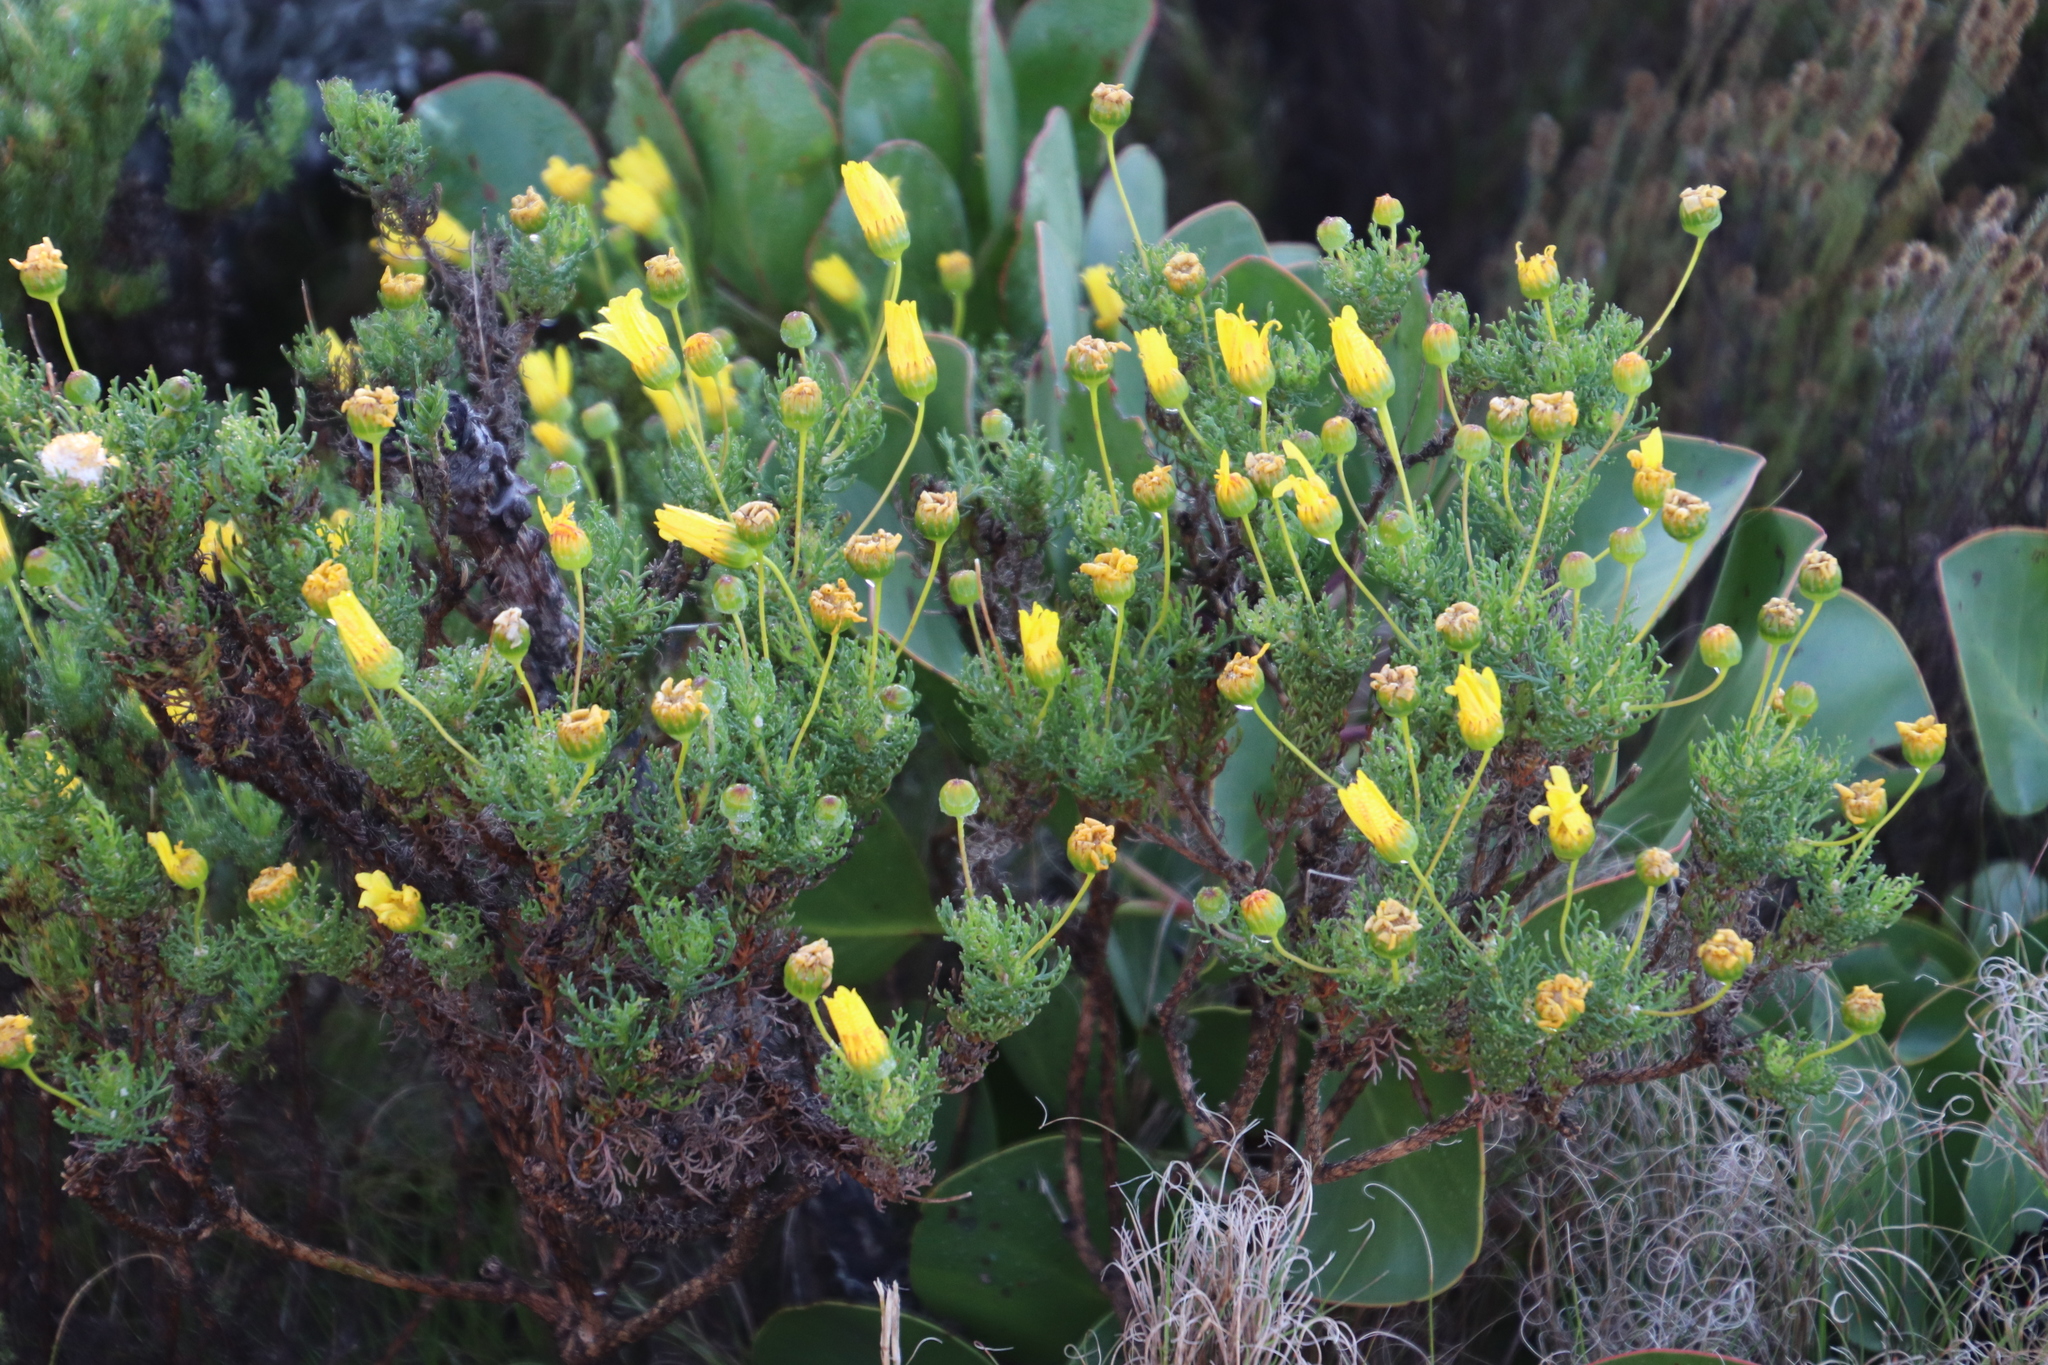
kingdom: Plantae
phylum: Tracheophyta
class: Magnoliopsida
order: Asterales
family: Asteraceae
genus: Euryops
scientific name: Euryops abrotanifolius
